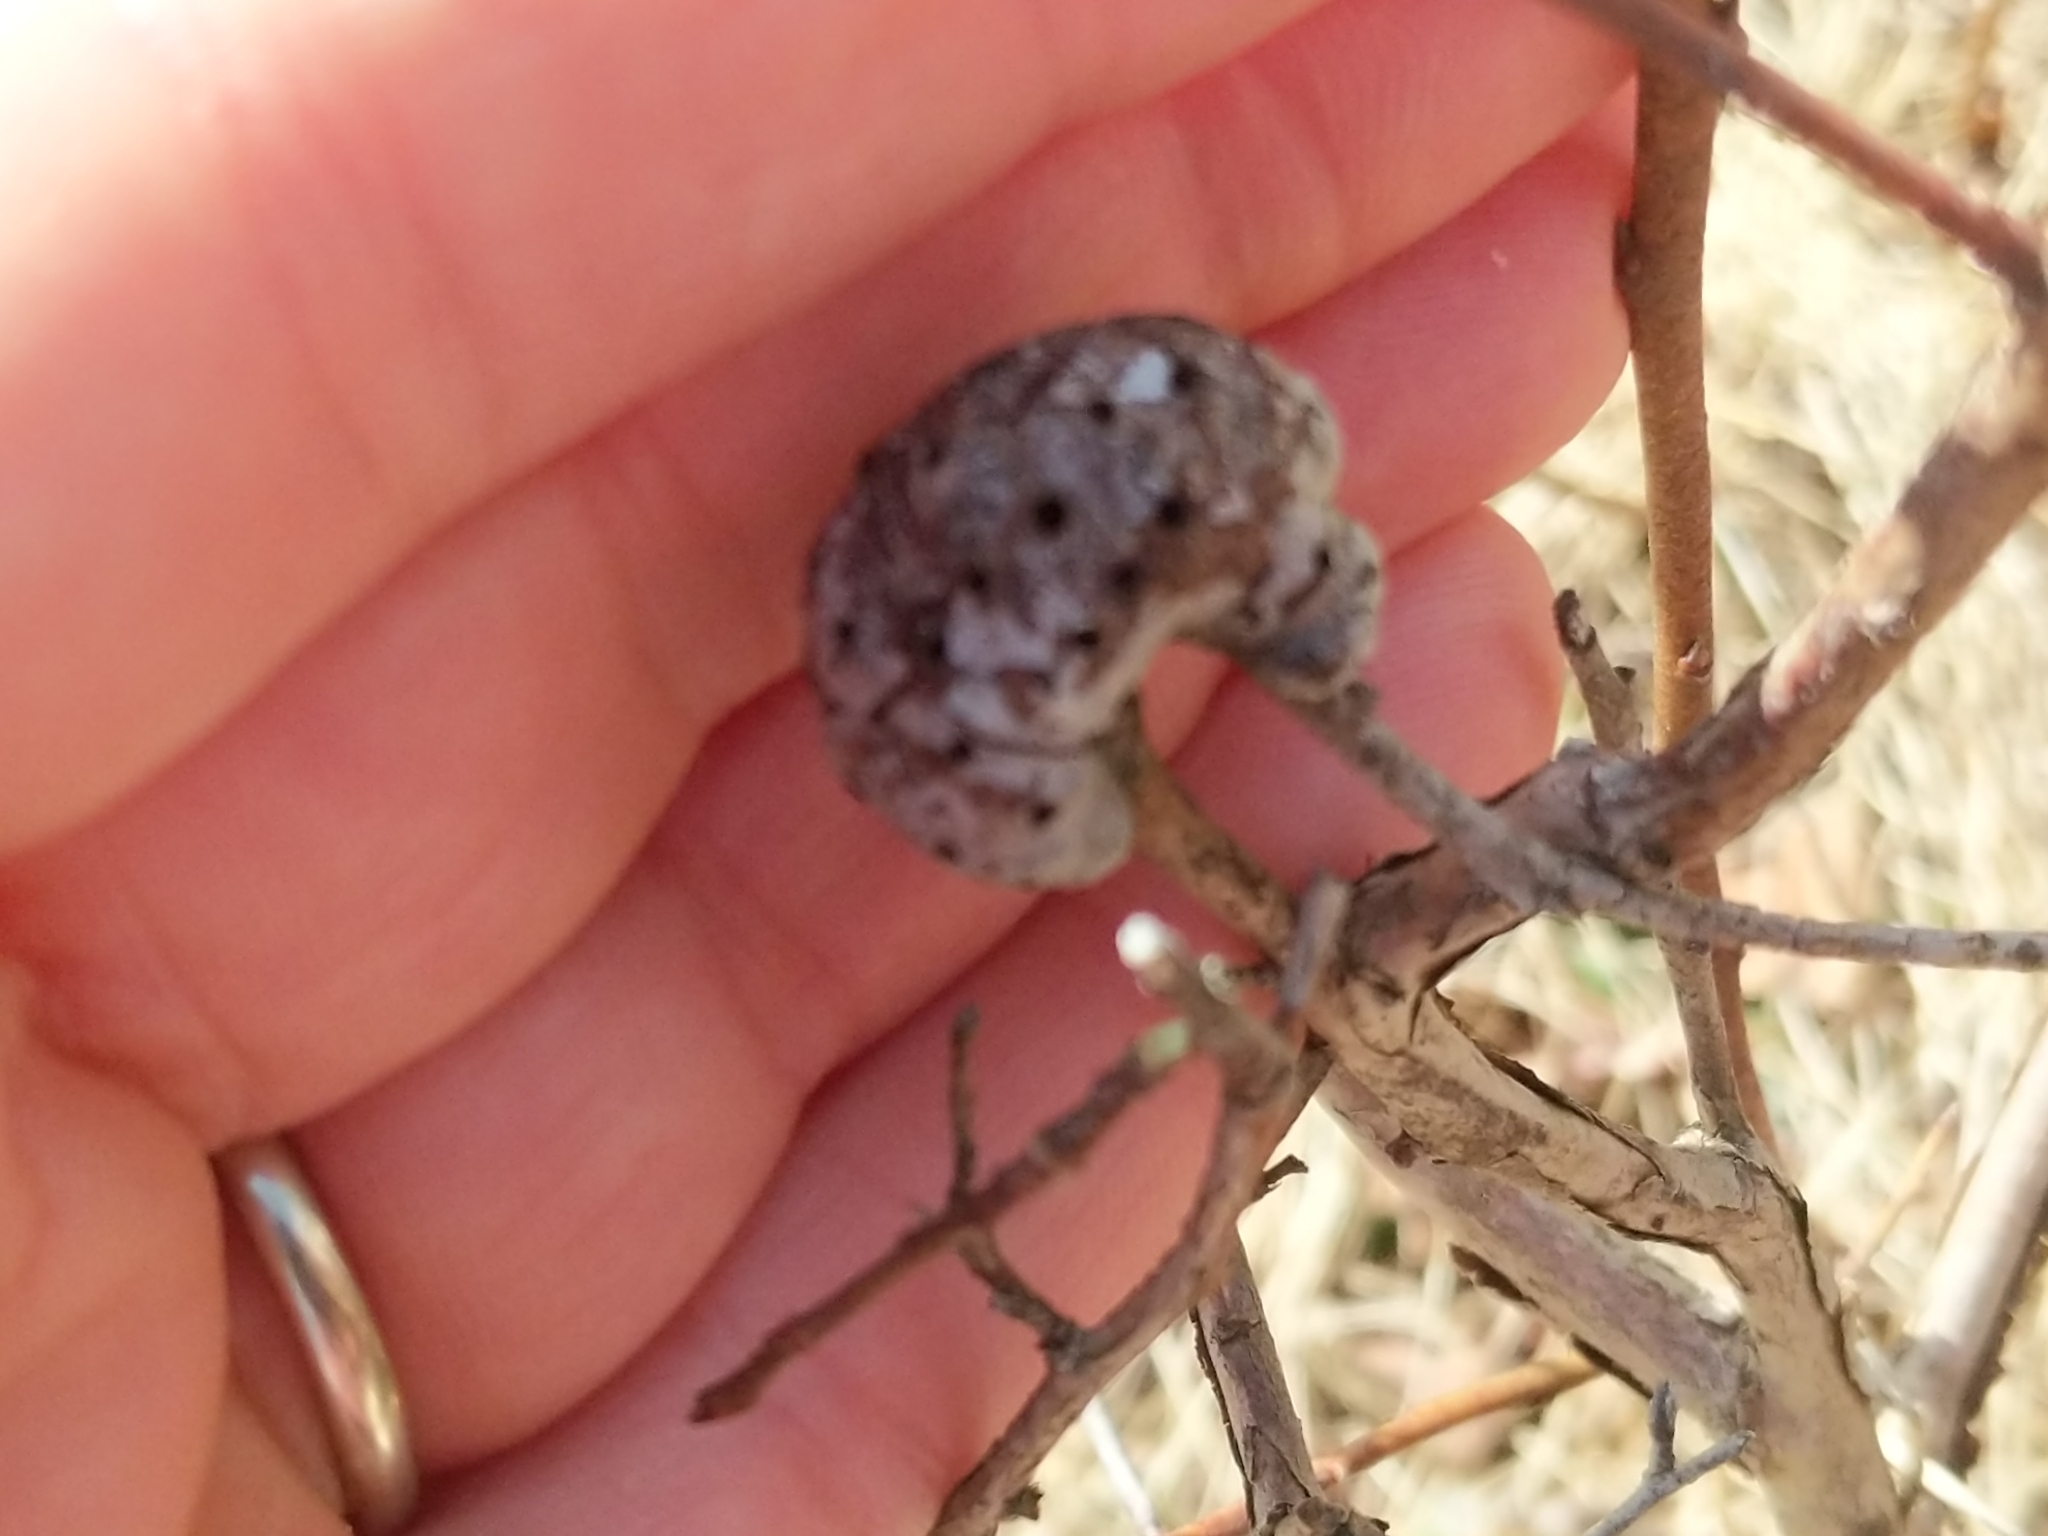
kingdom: Animalia
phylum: Arthropoda
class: Insecta
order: Hymenoptera
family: Pteromalidae
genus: Hemadas
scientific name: Hemadas nubilipennis
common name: Blueberry stem gall wasp
